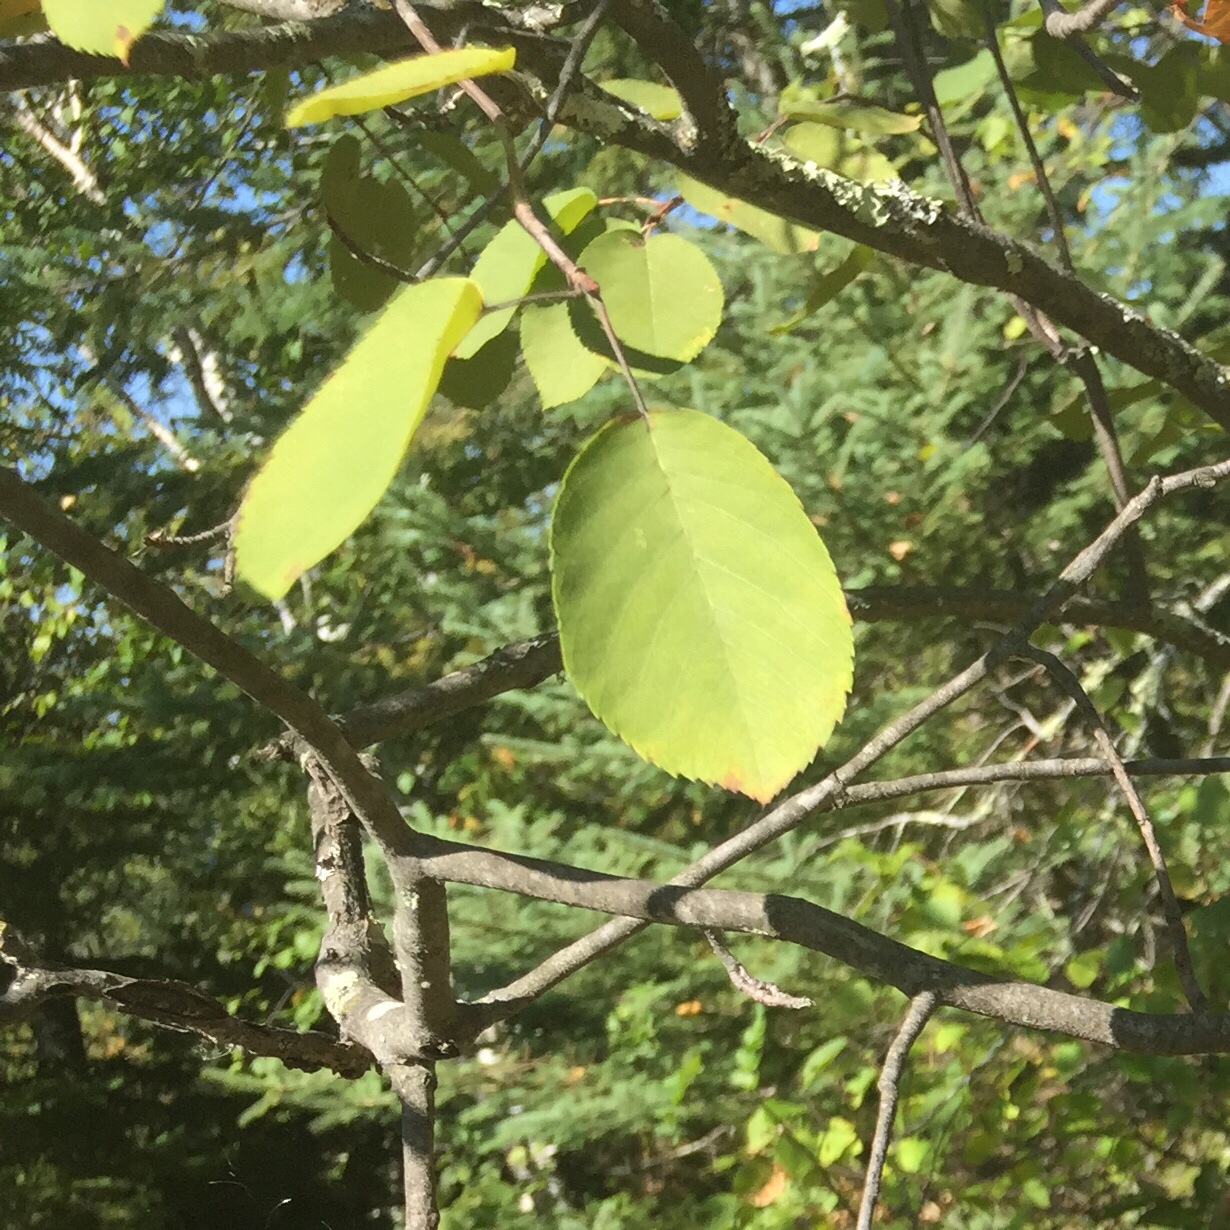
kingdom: Plantae
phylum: Tracheophyta
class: Magnoliopsida
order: Rosales
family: Rosaceae
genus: Amelanchier
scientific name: Amelanchier alnifolia
